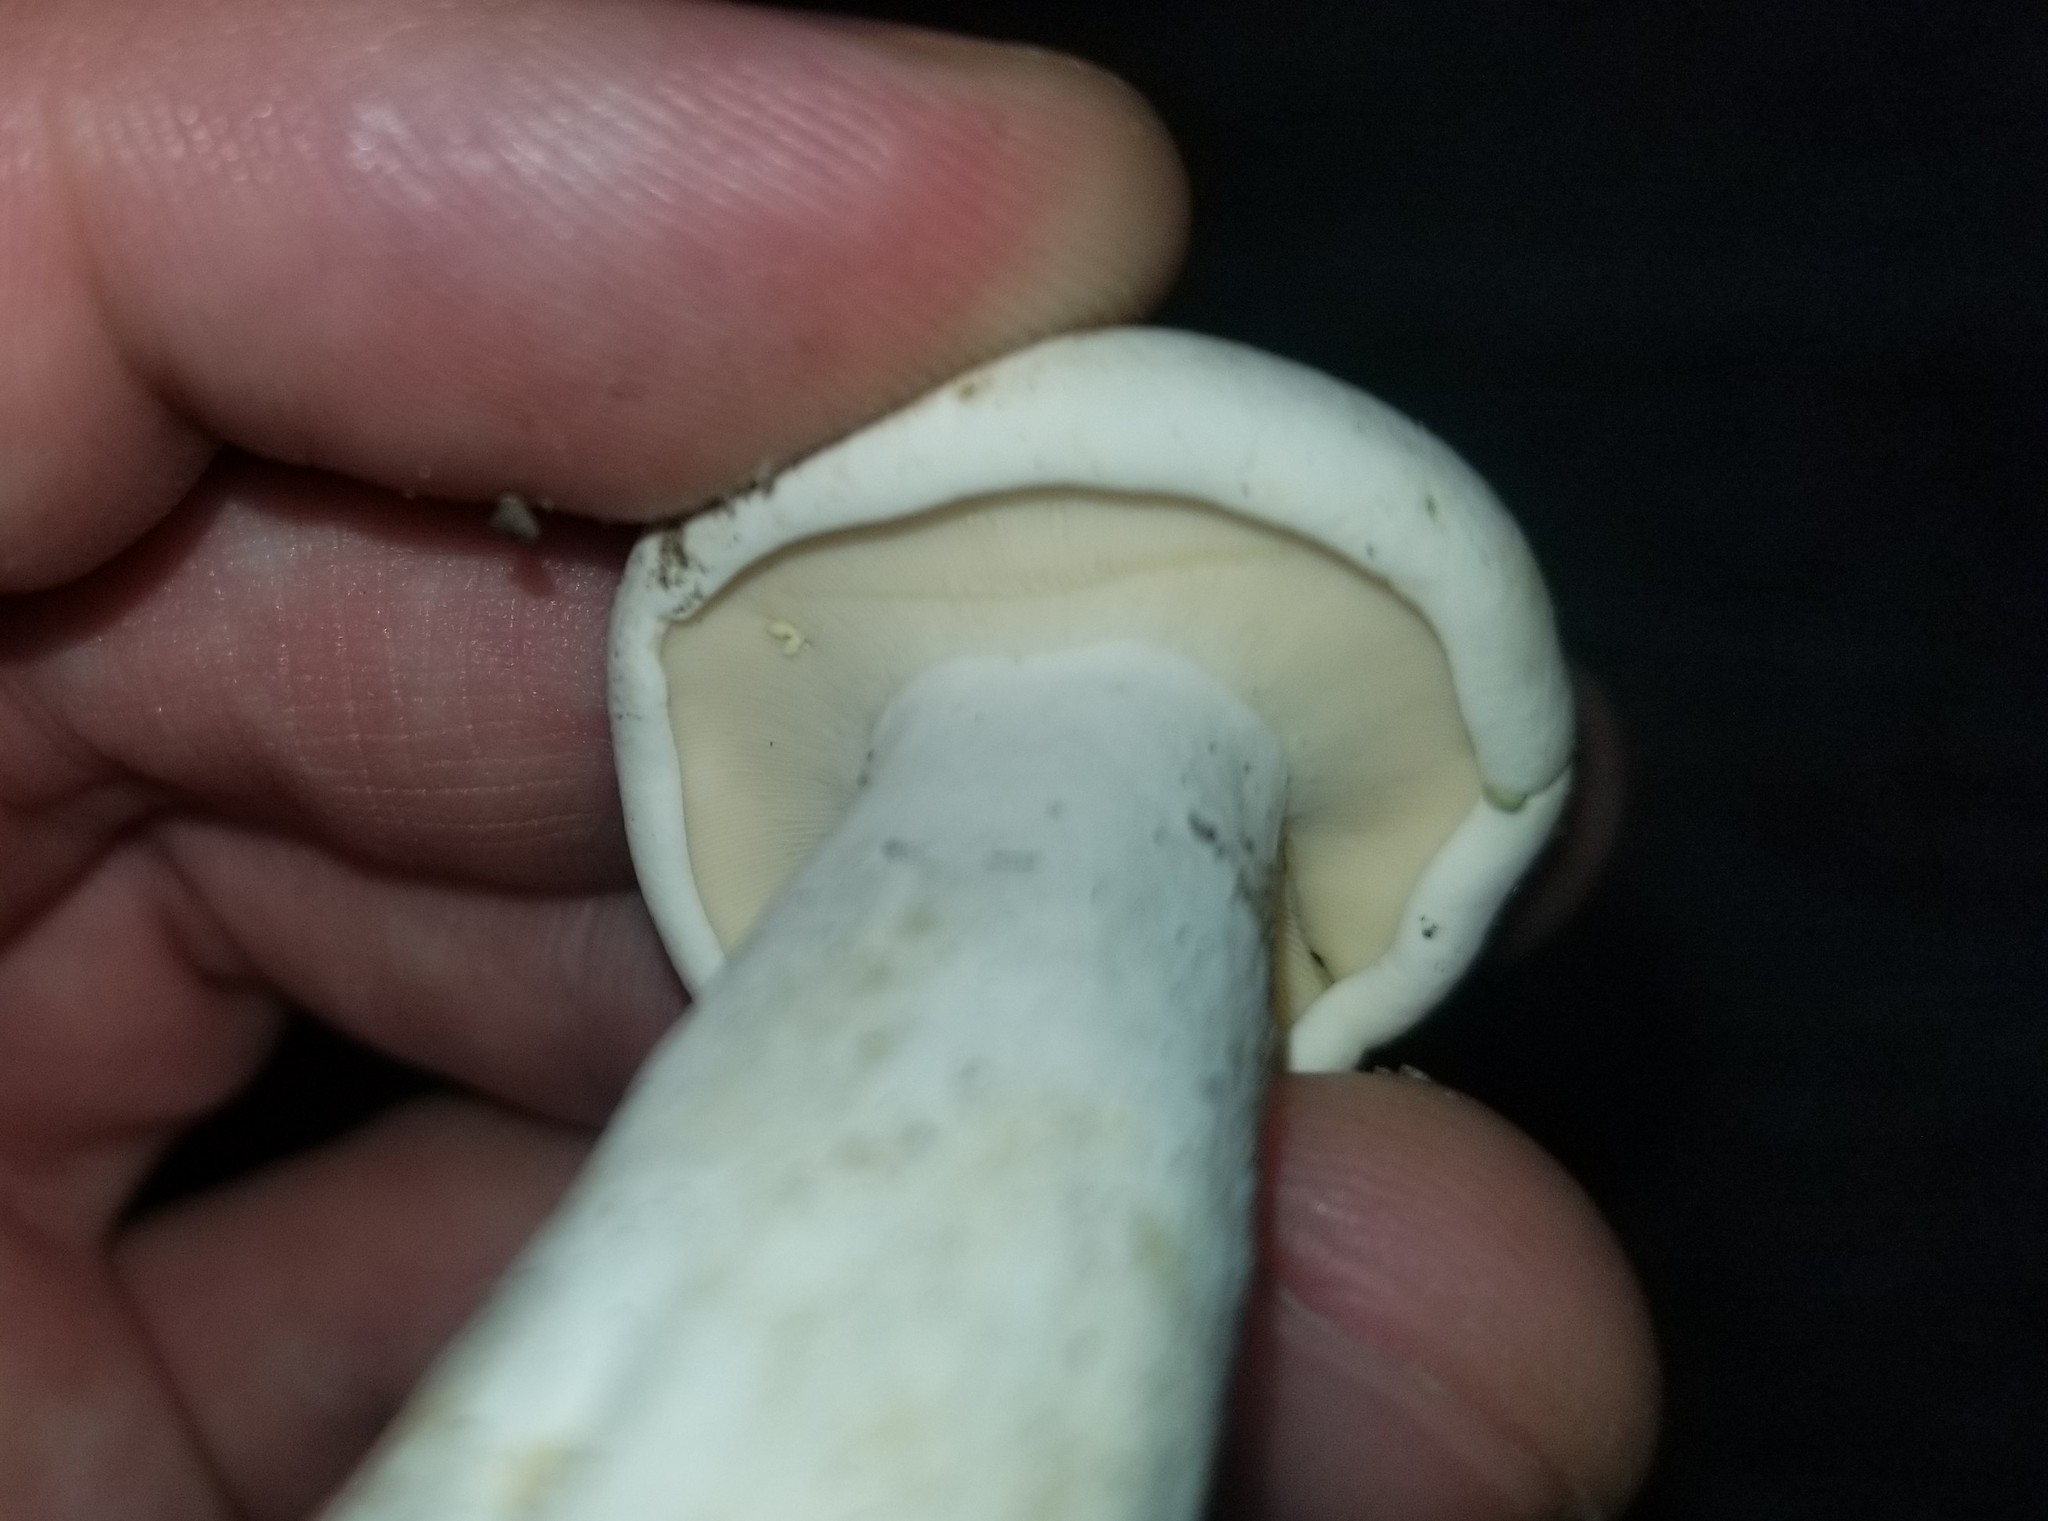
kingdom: Fungi
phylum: Basidiomycota
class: Agaricomycetes
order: Russulales
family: Russulaceae
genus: Lactifluus
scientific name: Lactifluus glaucescens
